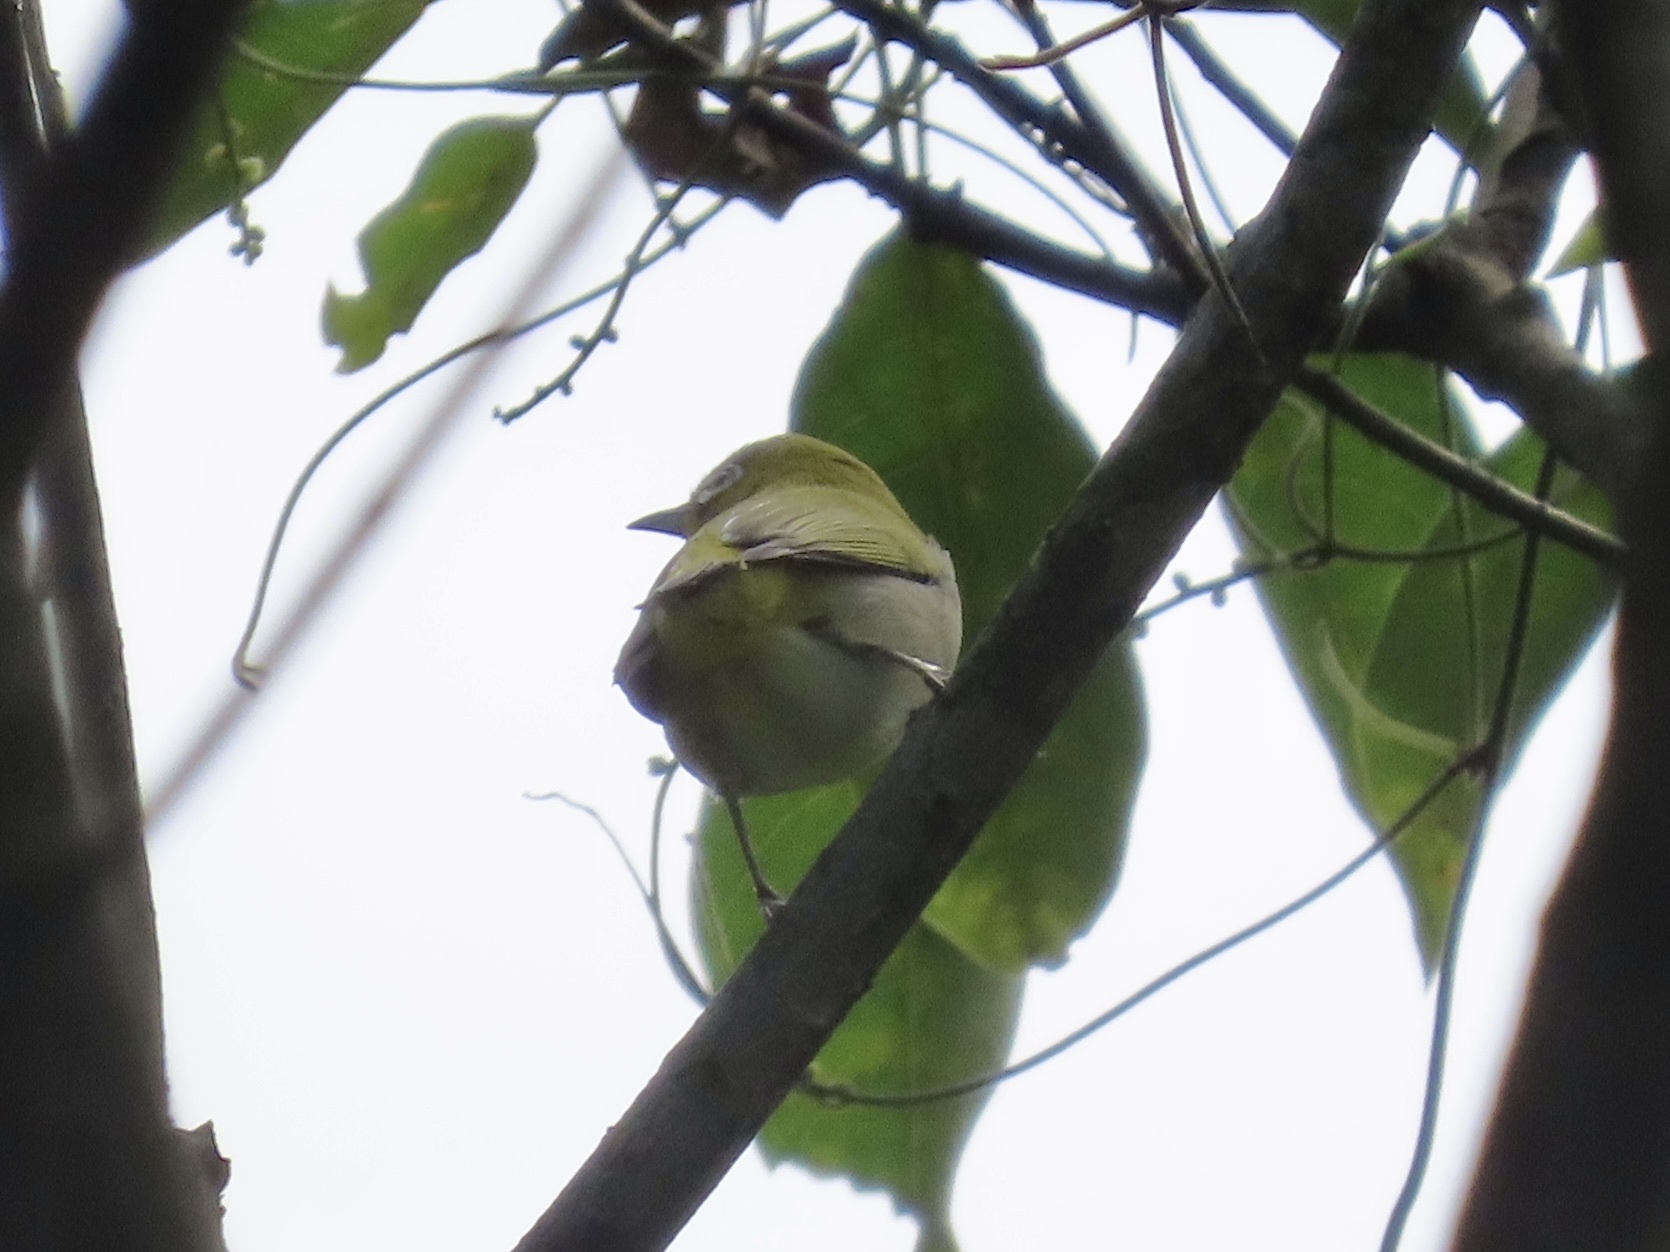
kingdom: Animalia
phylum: Chordata
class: Aves
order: Passeriformes
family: Zosteropidae
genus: Zosterops
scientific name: Zosterops simplex
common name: Swinhoe's white-eye
